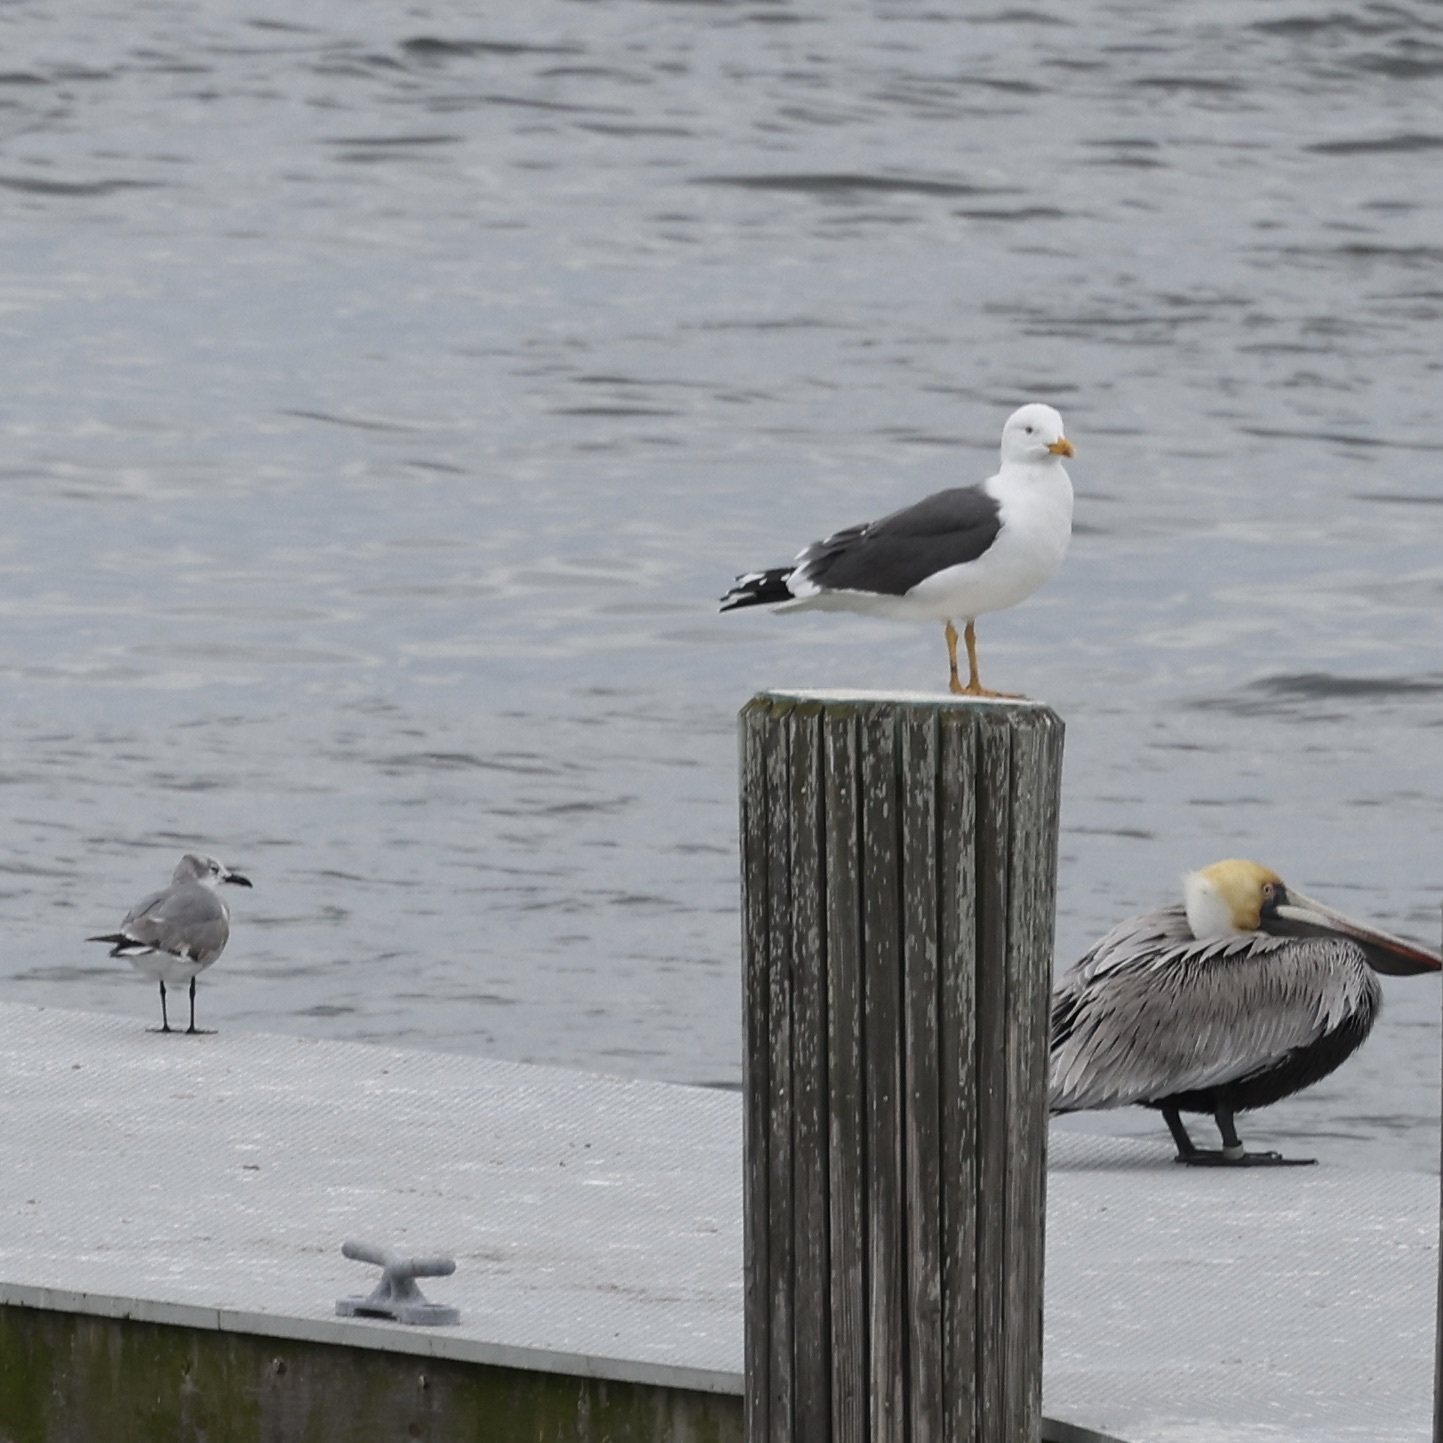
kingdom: Animalia
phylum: Chordata
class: Aves
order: Charadriiformes
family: Laridae
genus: Larus
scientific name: Larus fuscus
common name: Lesser black-backed gull
